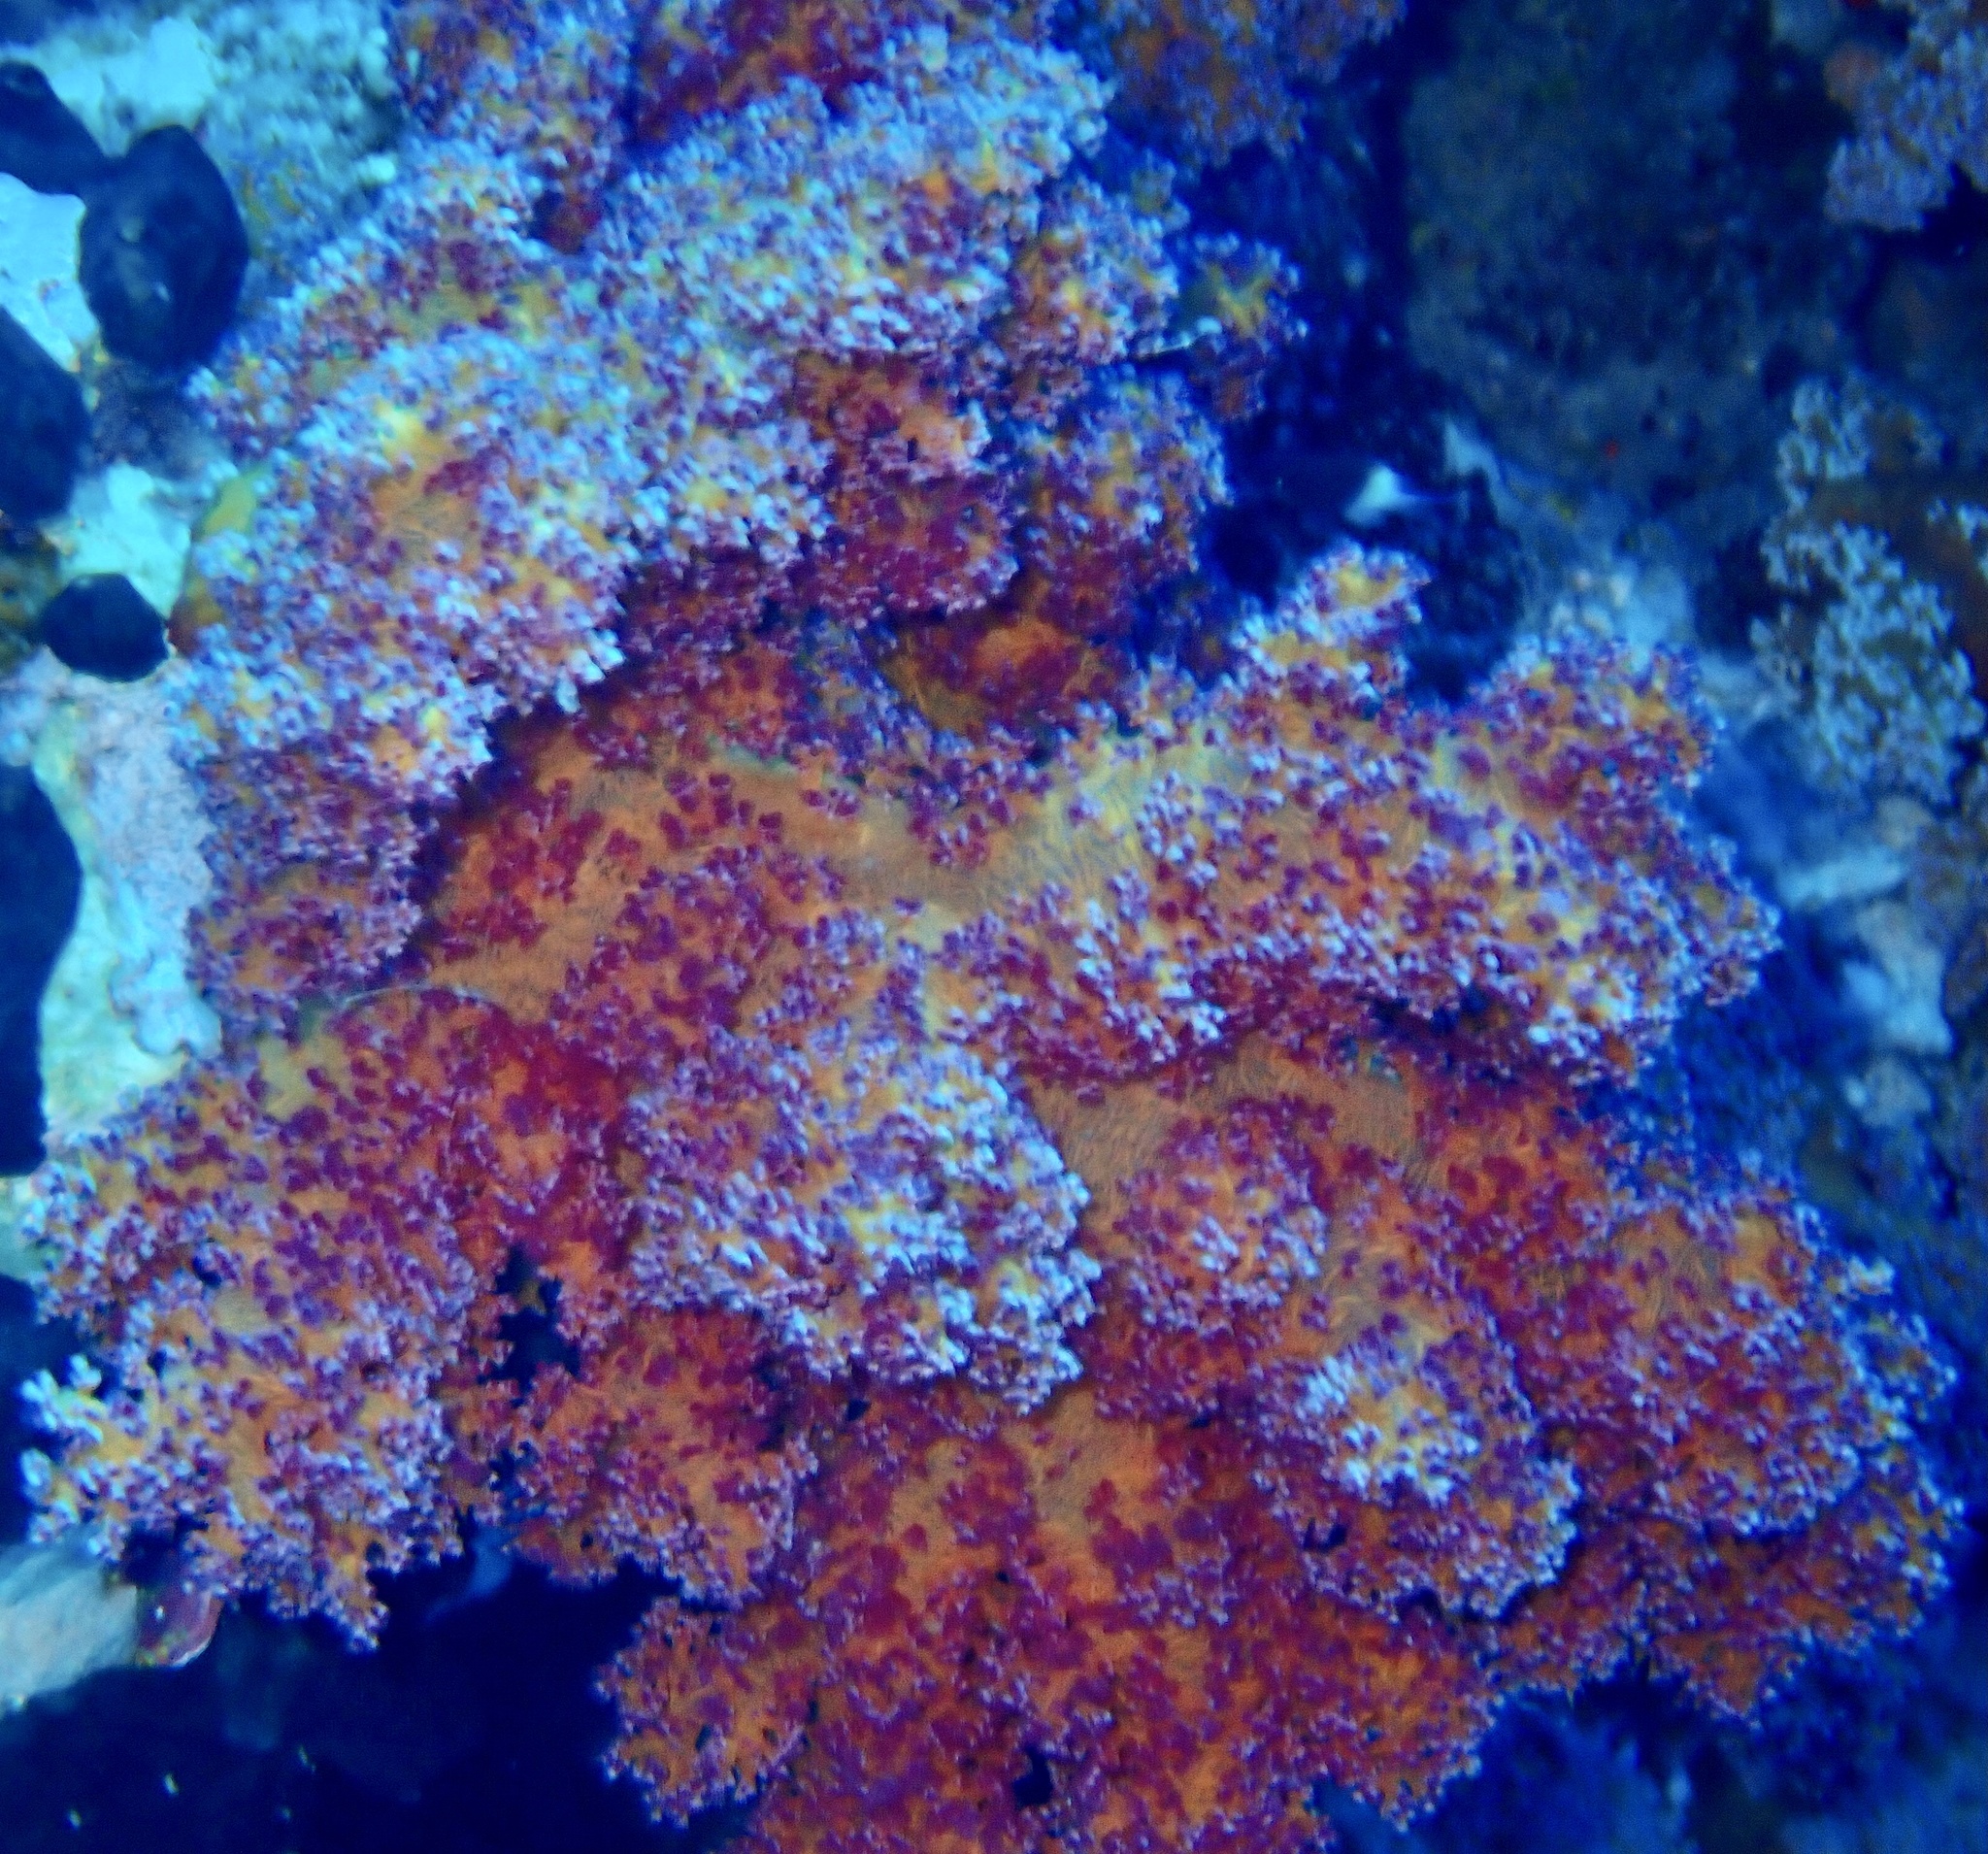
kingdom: Animalia
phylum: Cnidaria
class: Anthozoa
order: Malacalcyonacea
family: Nephtheidae
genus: Dendronephthya
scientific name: Dendronephthya hemprichi
